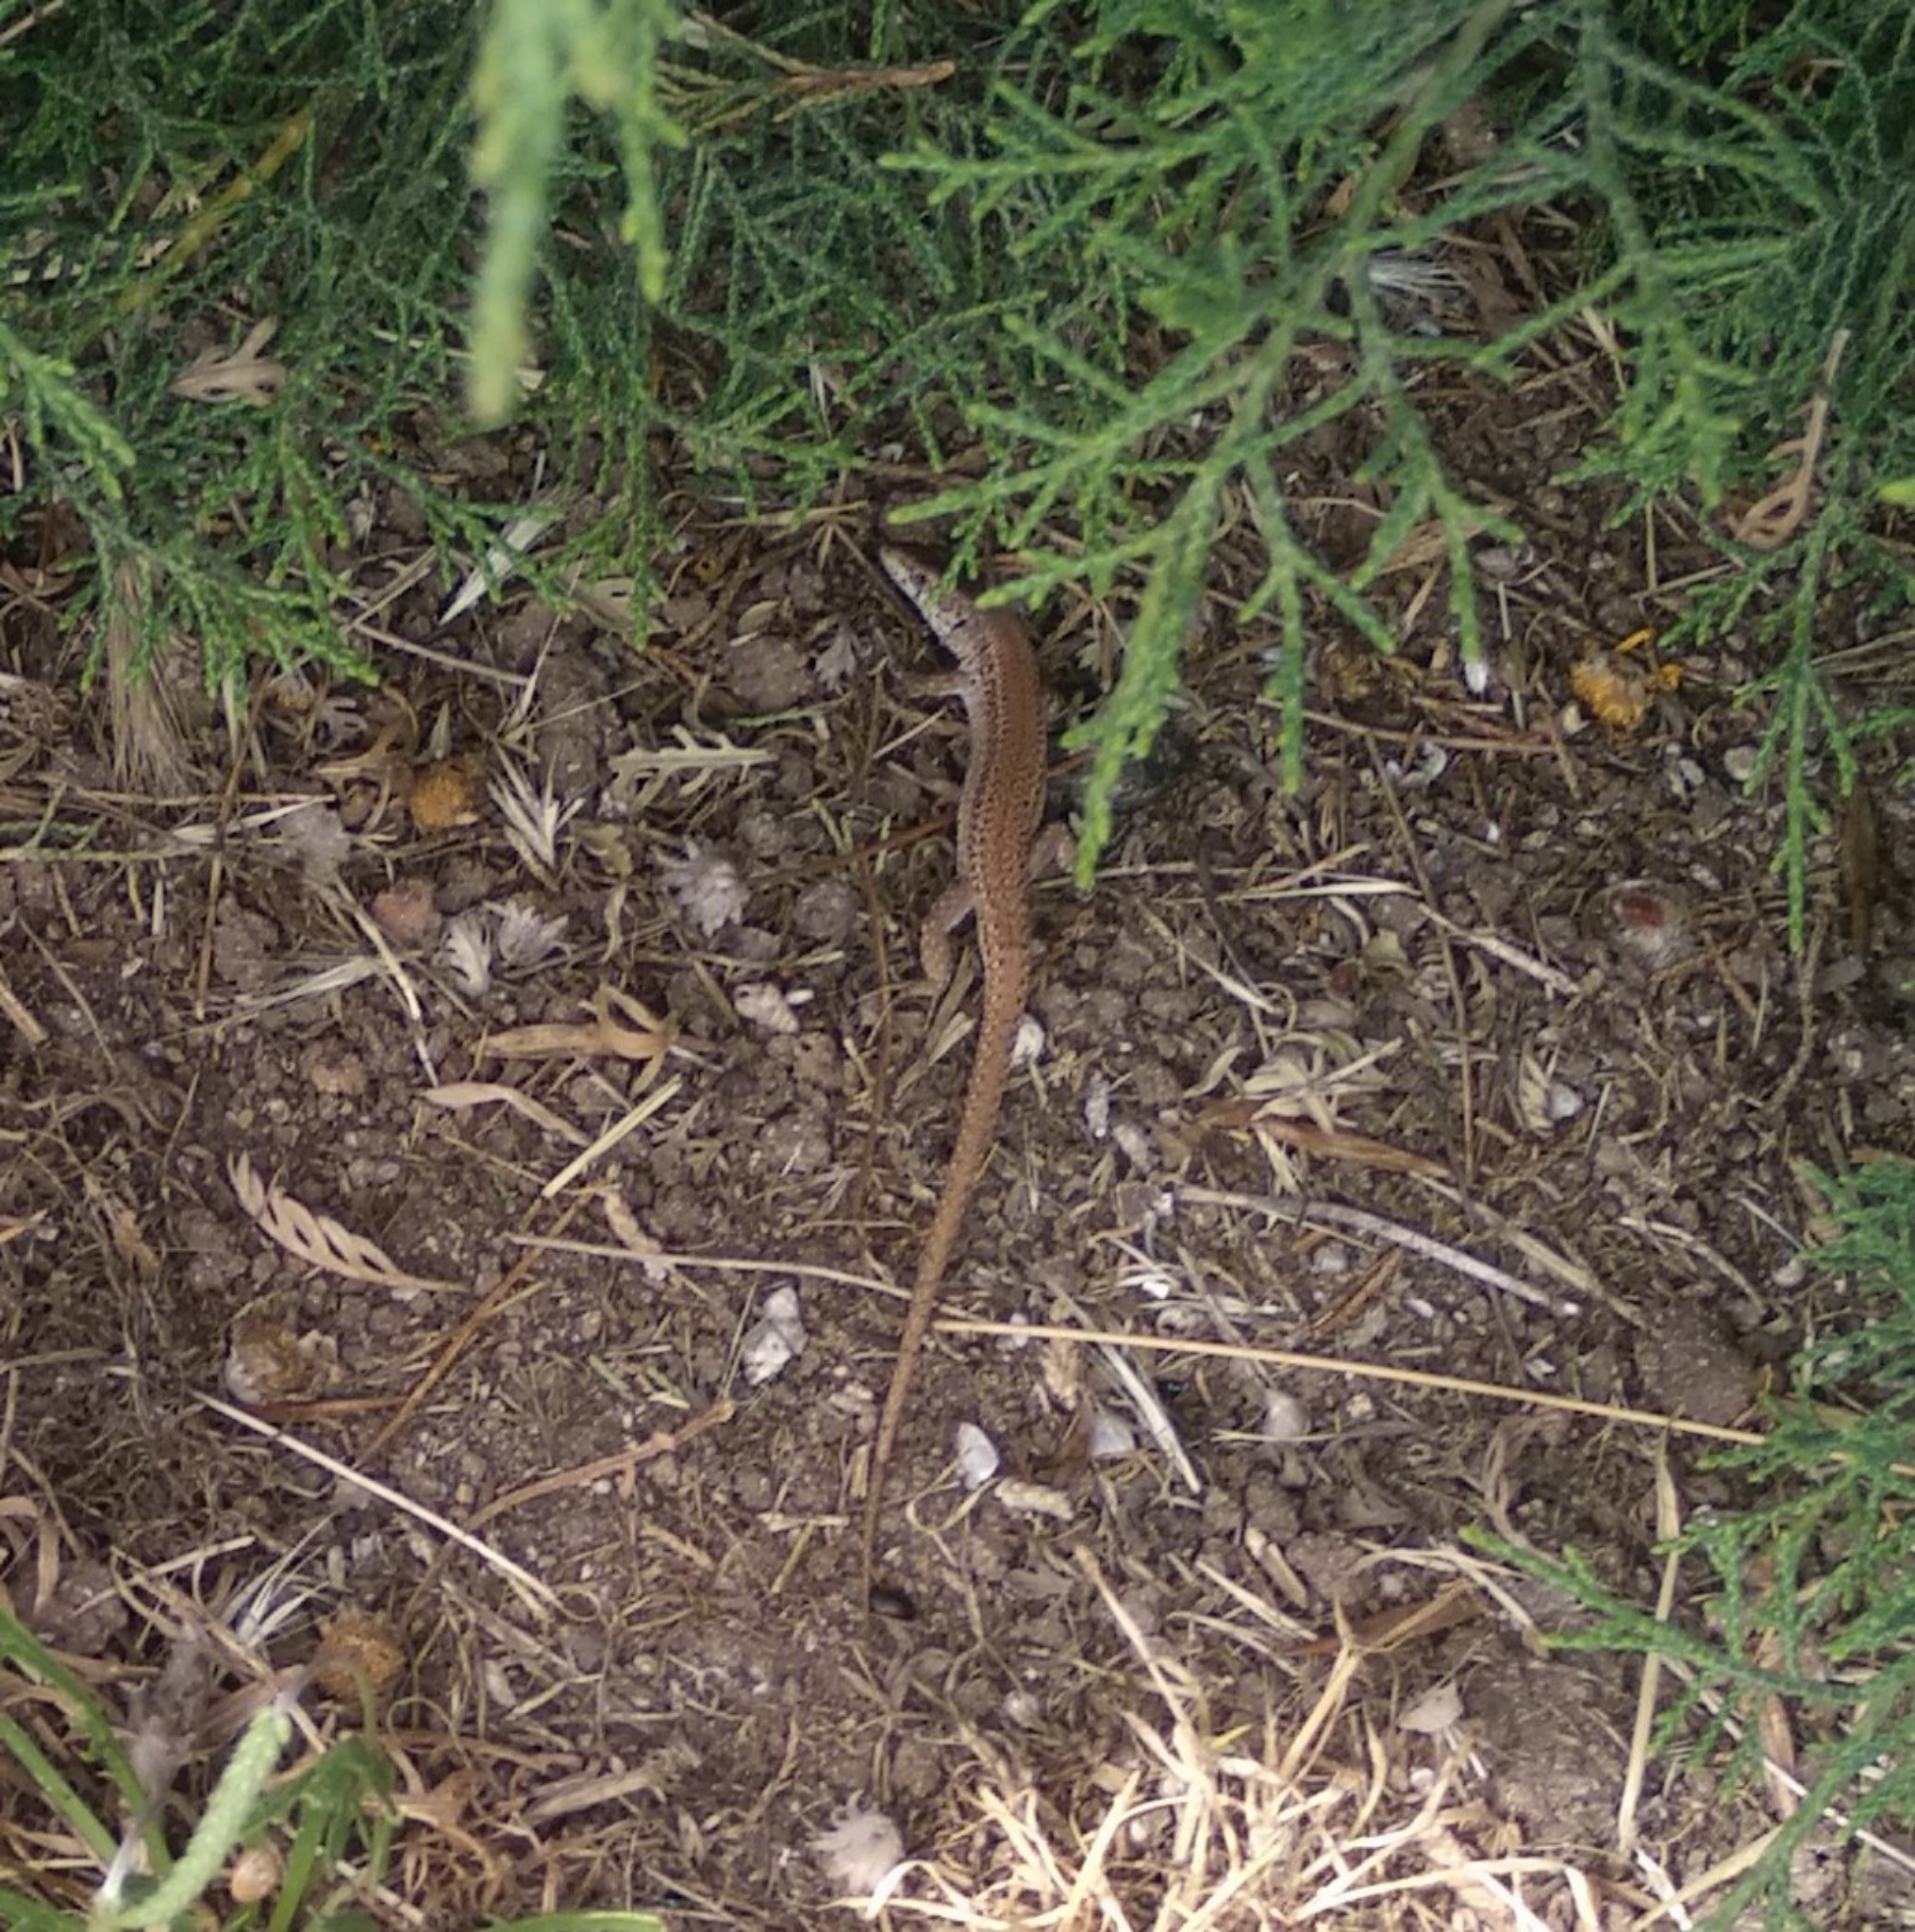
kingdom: Animalia
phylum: Chordata
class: Squamata
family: Lacertidae
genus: Podarcis
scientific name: Podarcis liolepis
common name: Catalonian wall lizard
